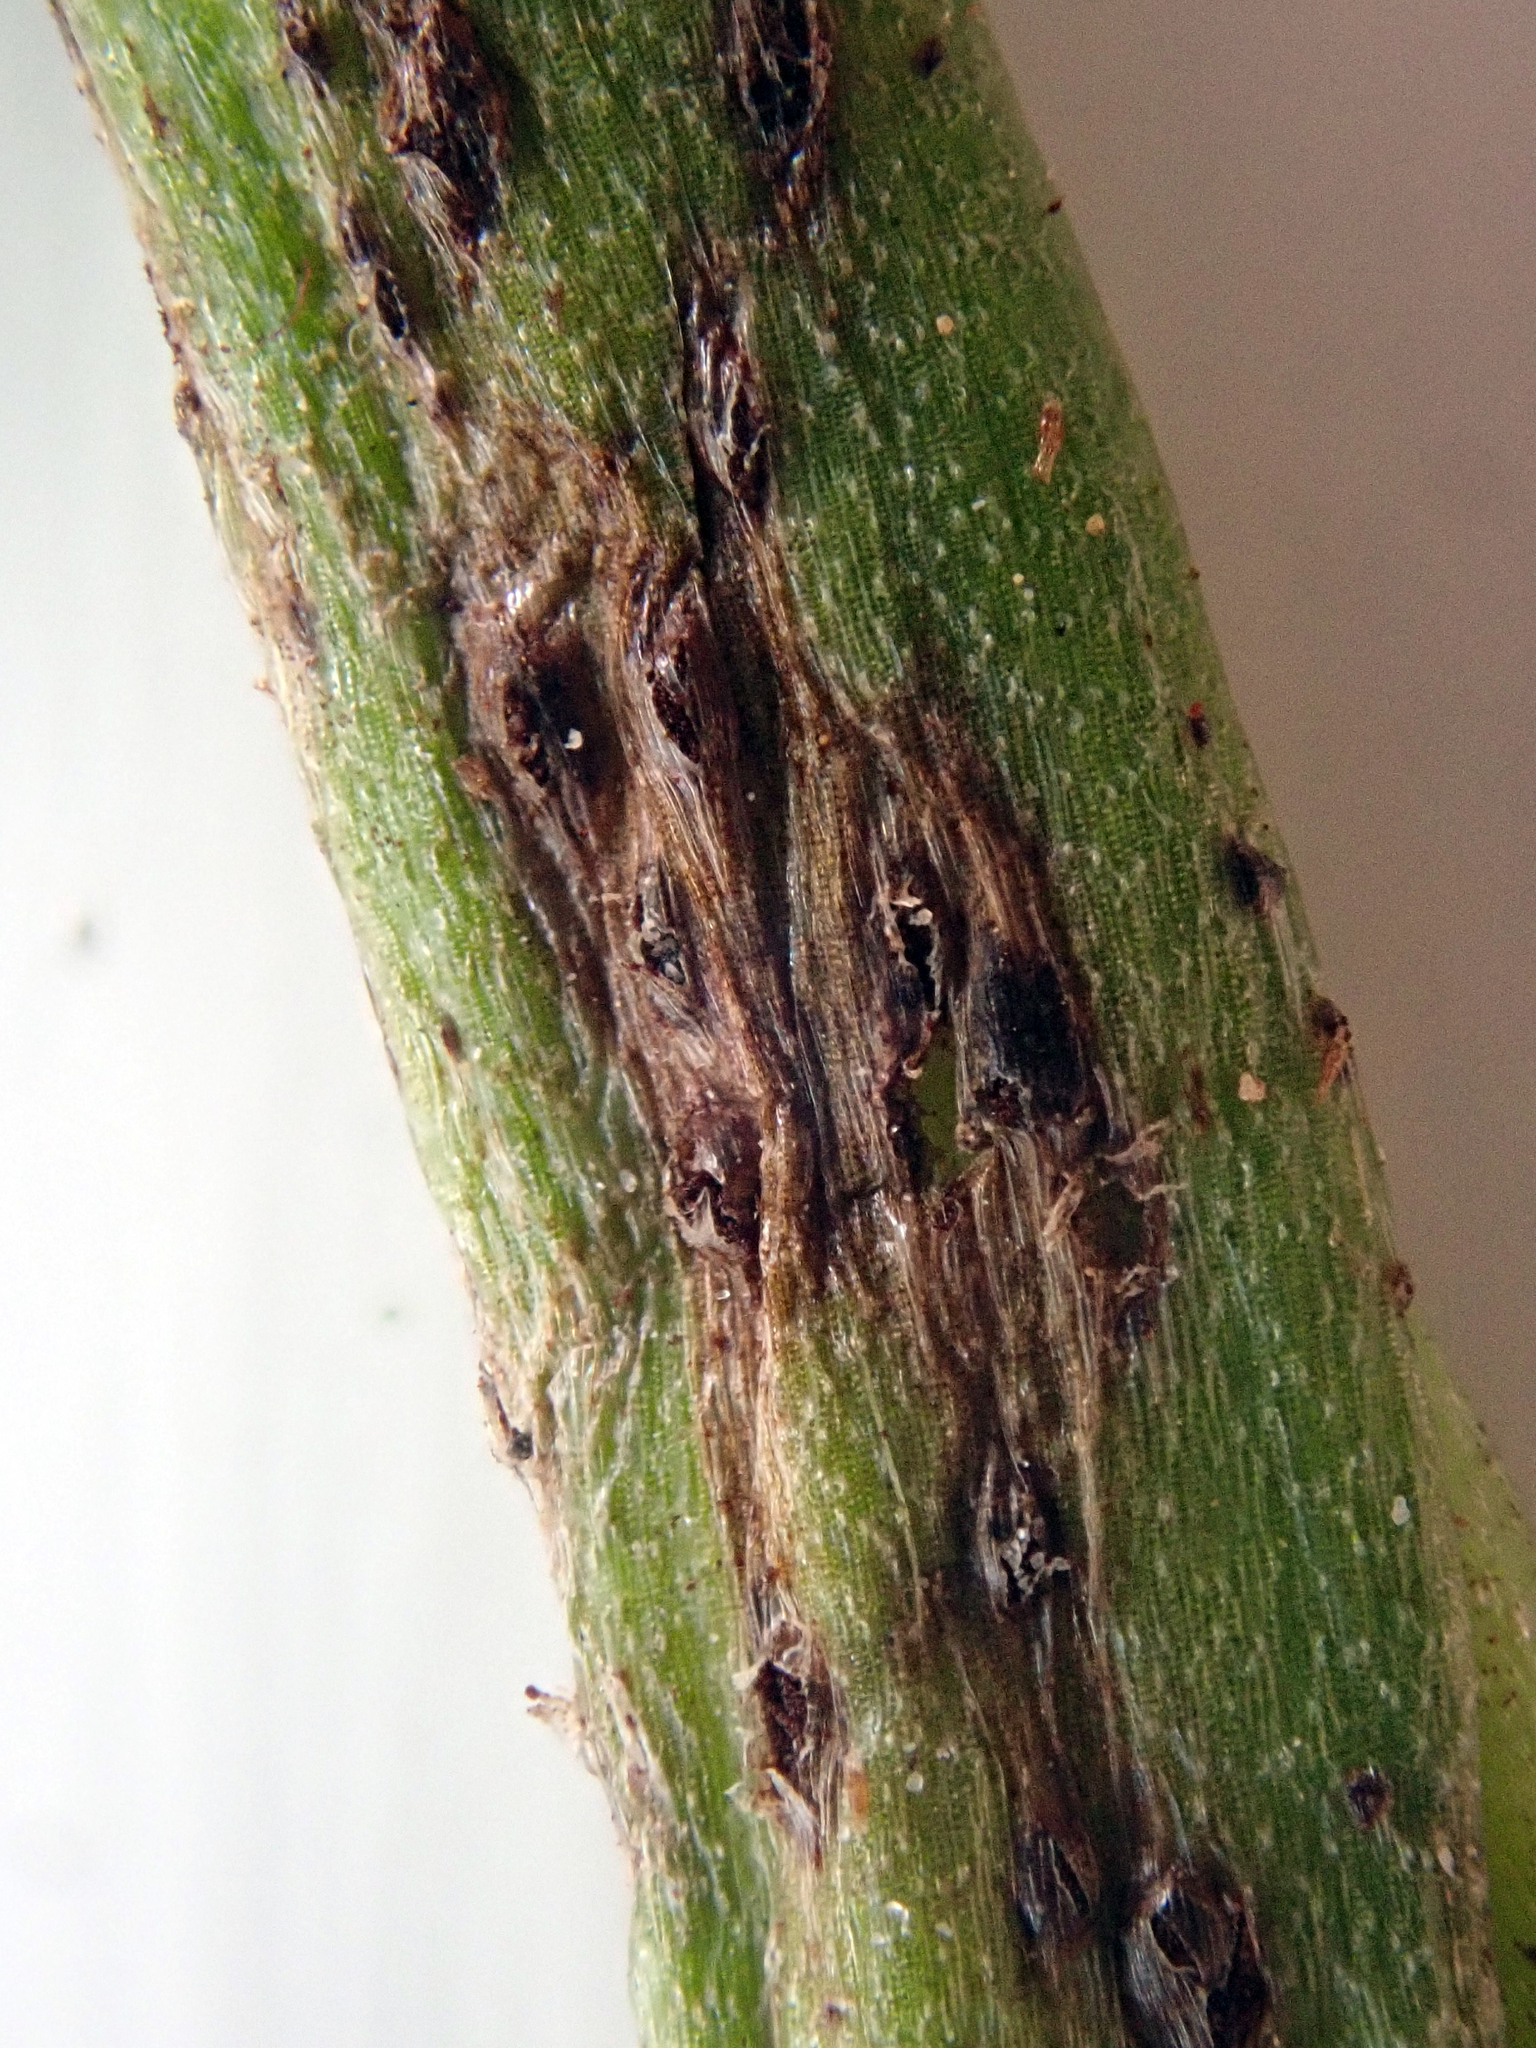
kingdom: Fungi
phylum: Basidiomycota
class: Pucciniomycetes
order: Pucciniales
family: Pucciniaceae
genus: Uromyces
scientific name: Uromyces microtidis
